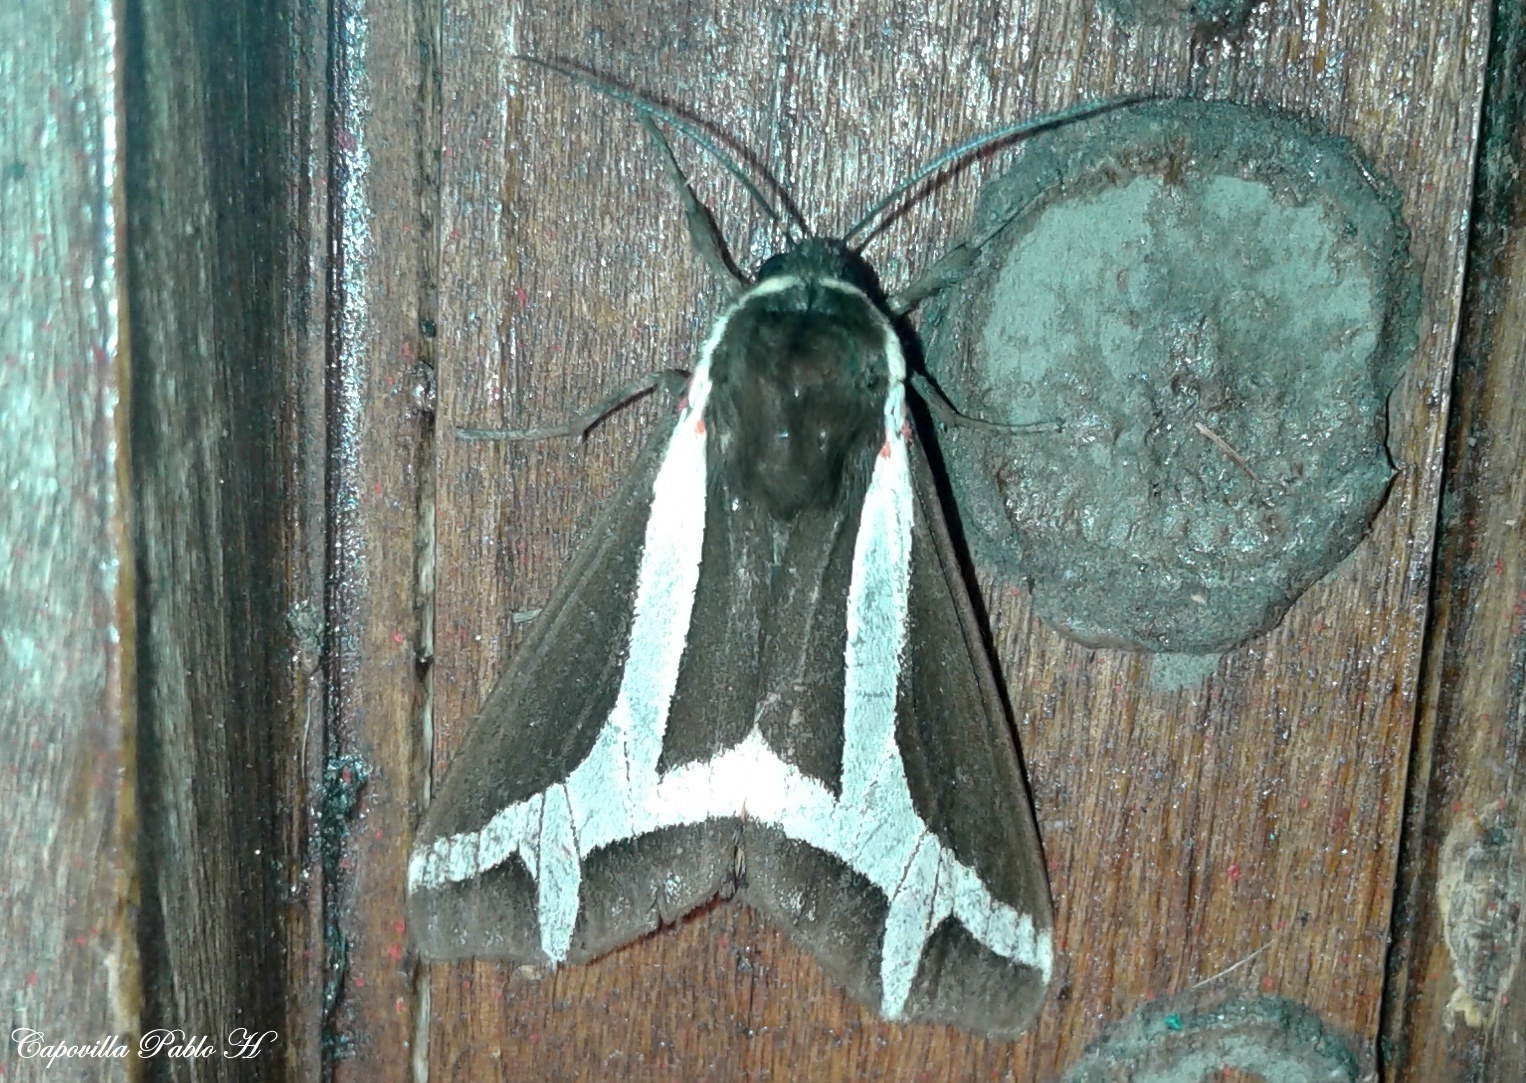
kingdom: Animalia
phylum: Arthropoda
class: Insecta
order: Lepidoptera
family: Erebidae
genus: Dysschema
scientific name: Dysschema sacrifica
